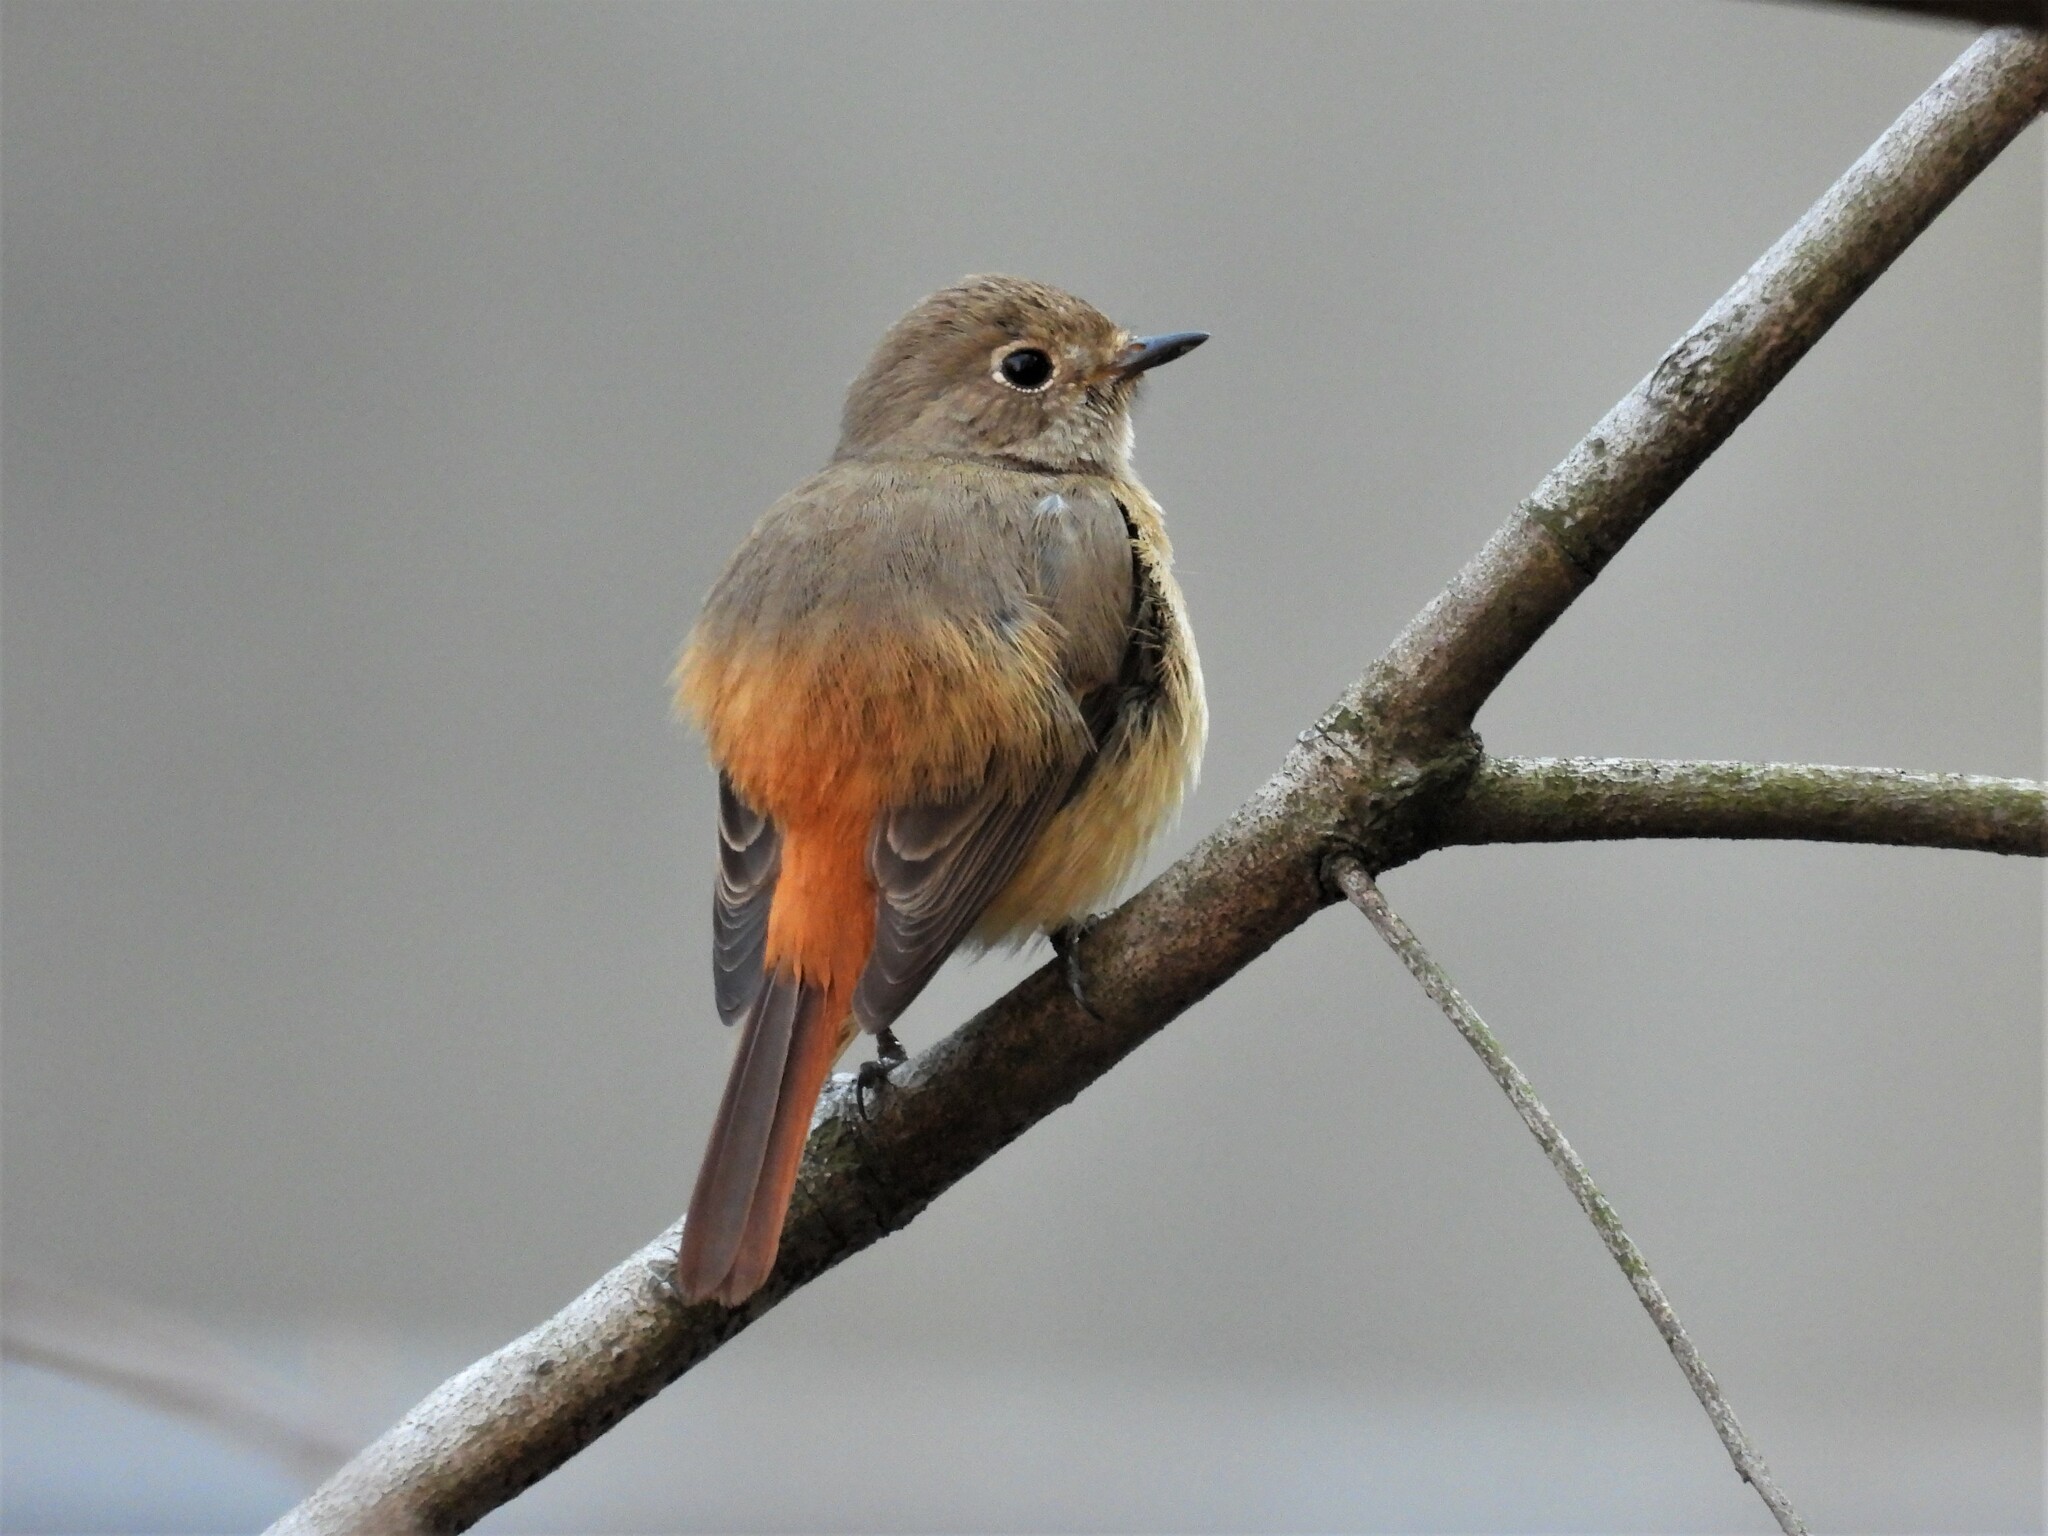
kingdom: Animalia
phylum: Chordata
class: Aves
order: Passeriformes
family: Muscicapidae
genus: Phoenicurus
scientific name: Phoenicurus auroreus
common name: Daurian redstart
